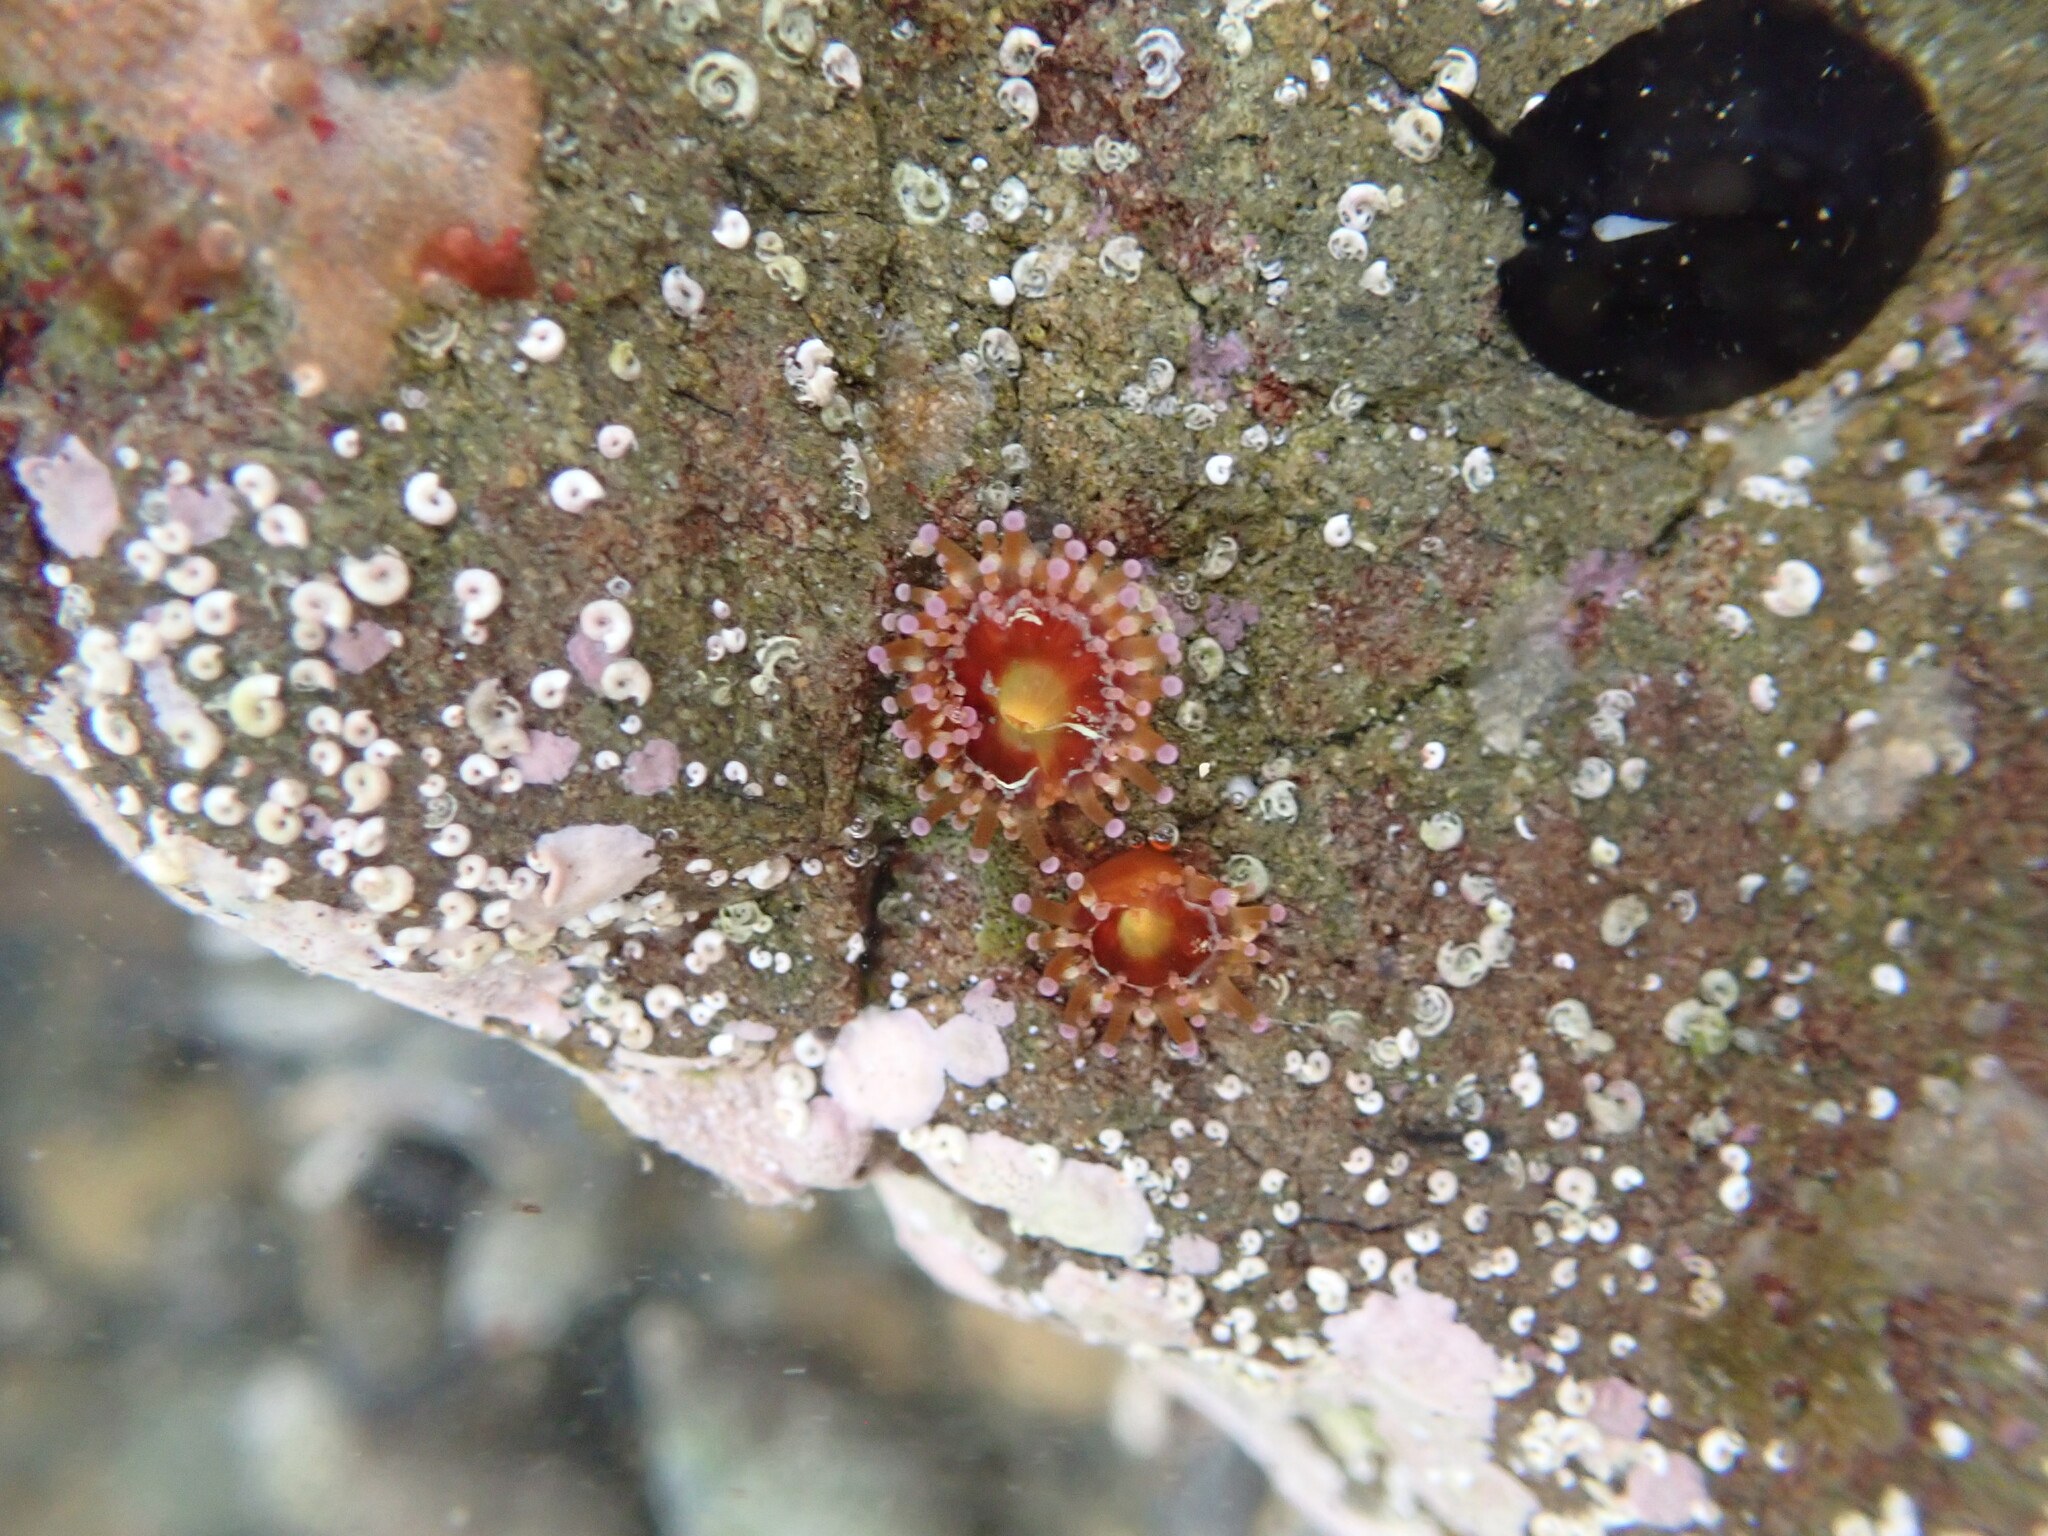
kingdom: Animalia
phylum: Cnidaria
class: Anthozoa
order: Corallimorpharia
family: Corallimorphidae
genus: Corynactis
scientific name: Corynactis australis
